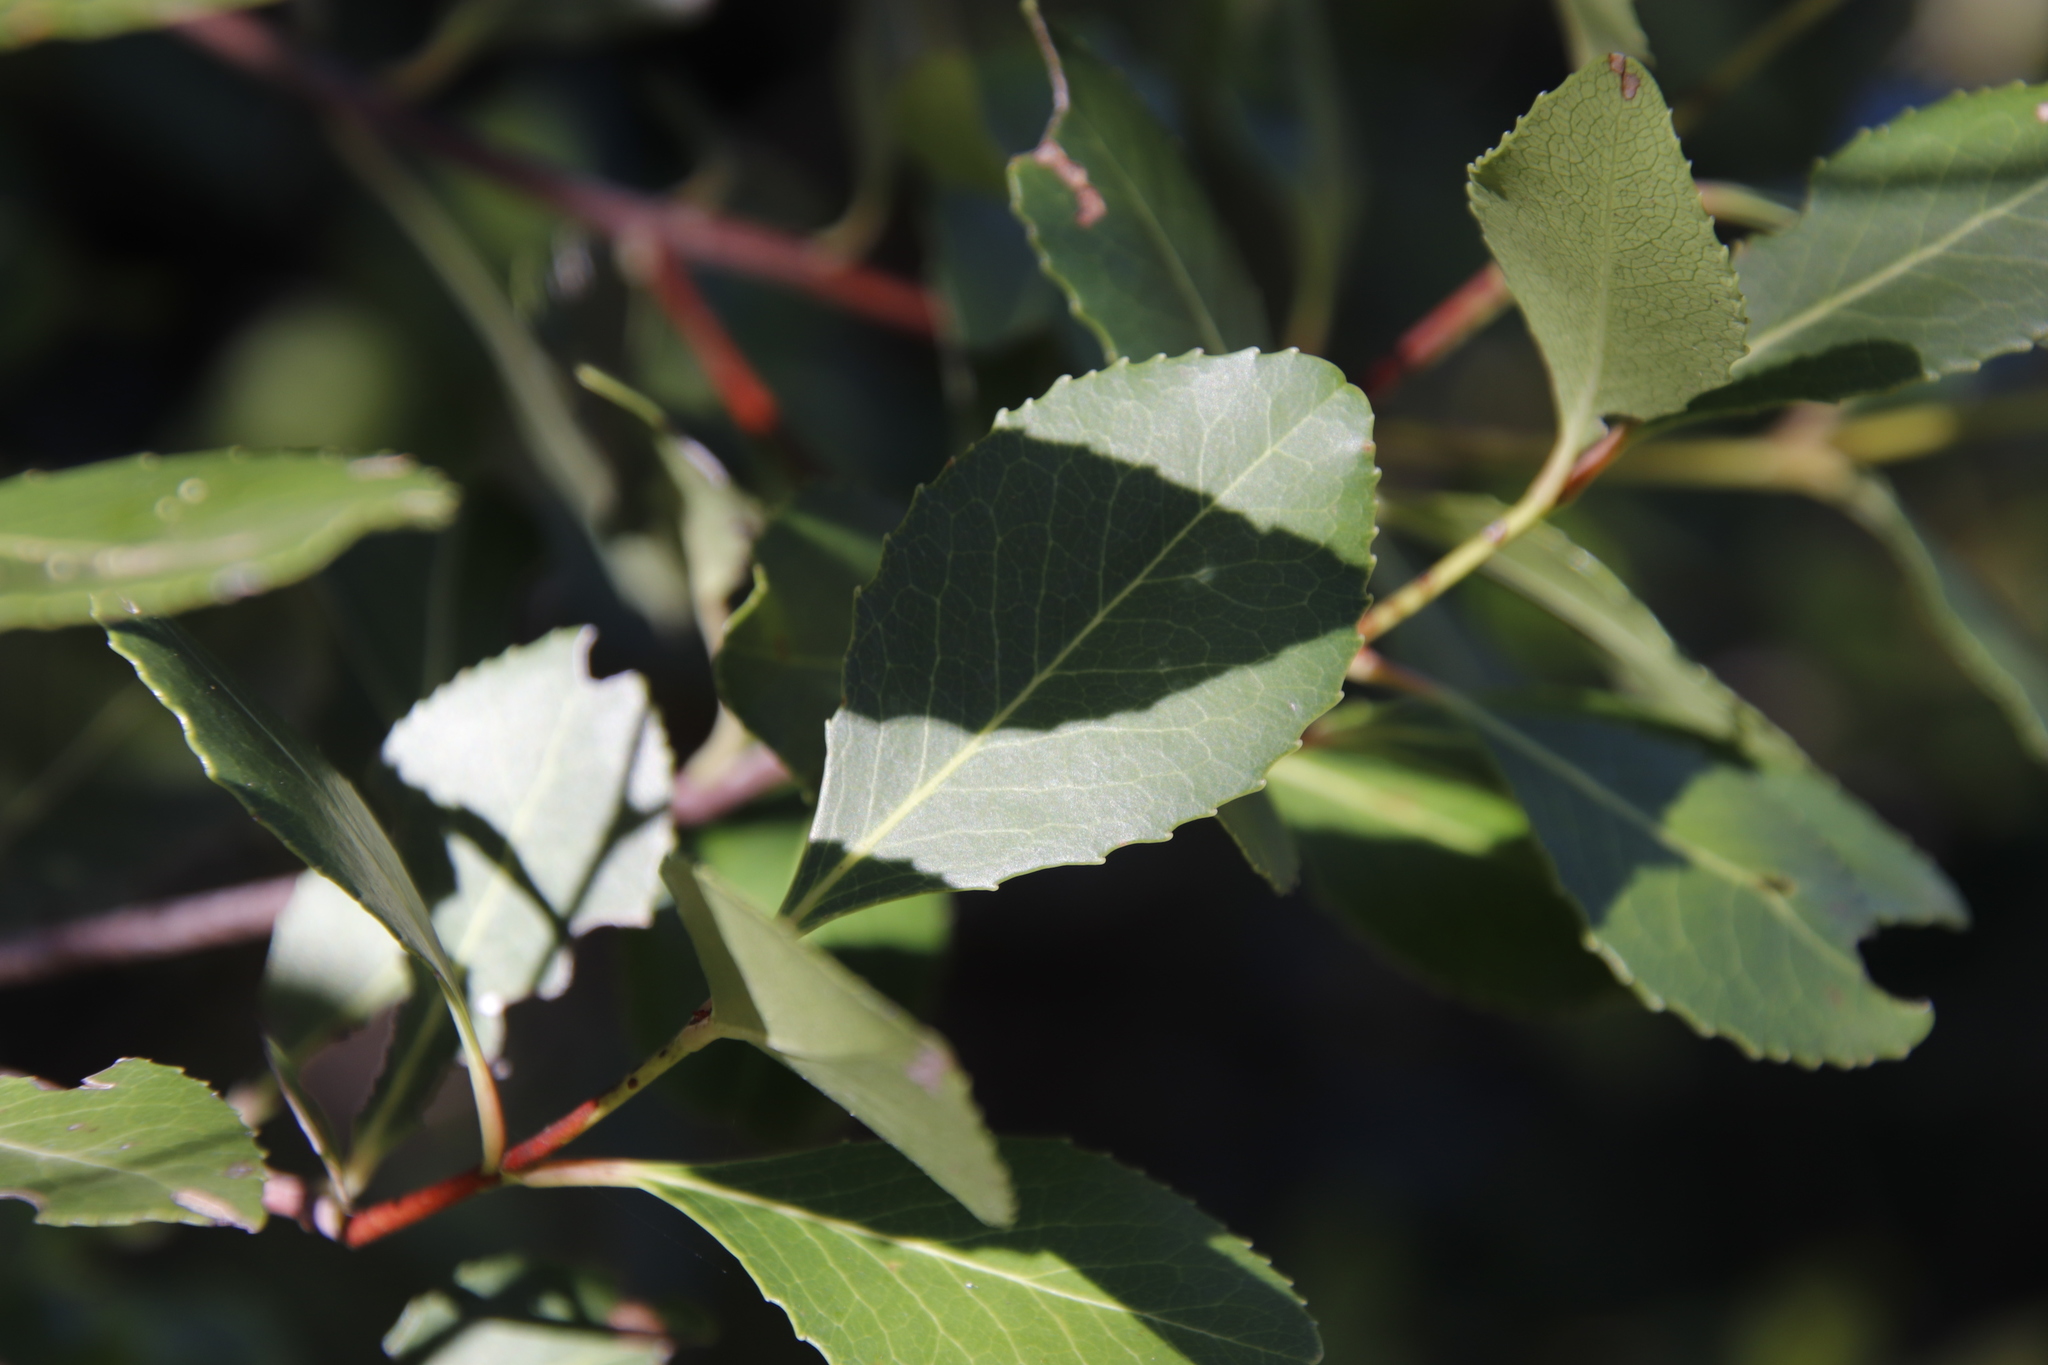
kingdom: Plantae
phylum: Tracheophyta
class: Magnoliopsida
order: Celastrales
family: Celastraceae
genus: Cassine
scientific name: Cassine peragua
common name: Cape saffron
